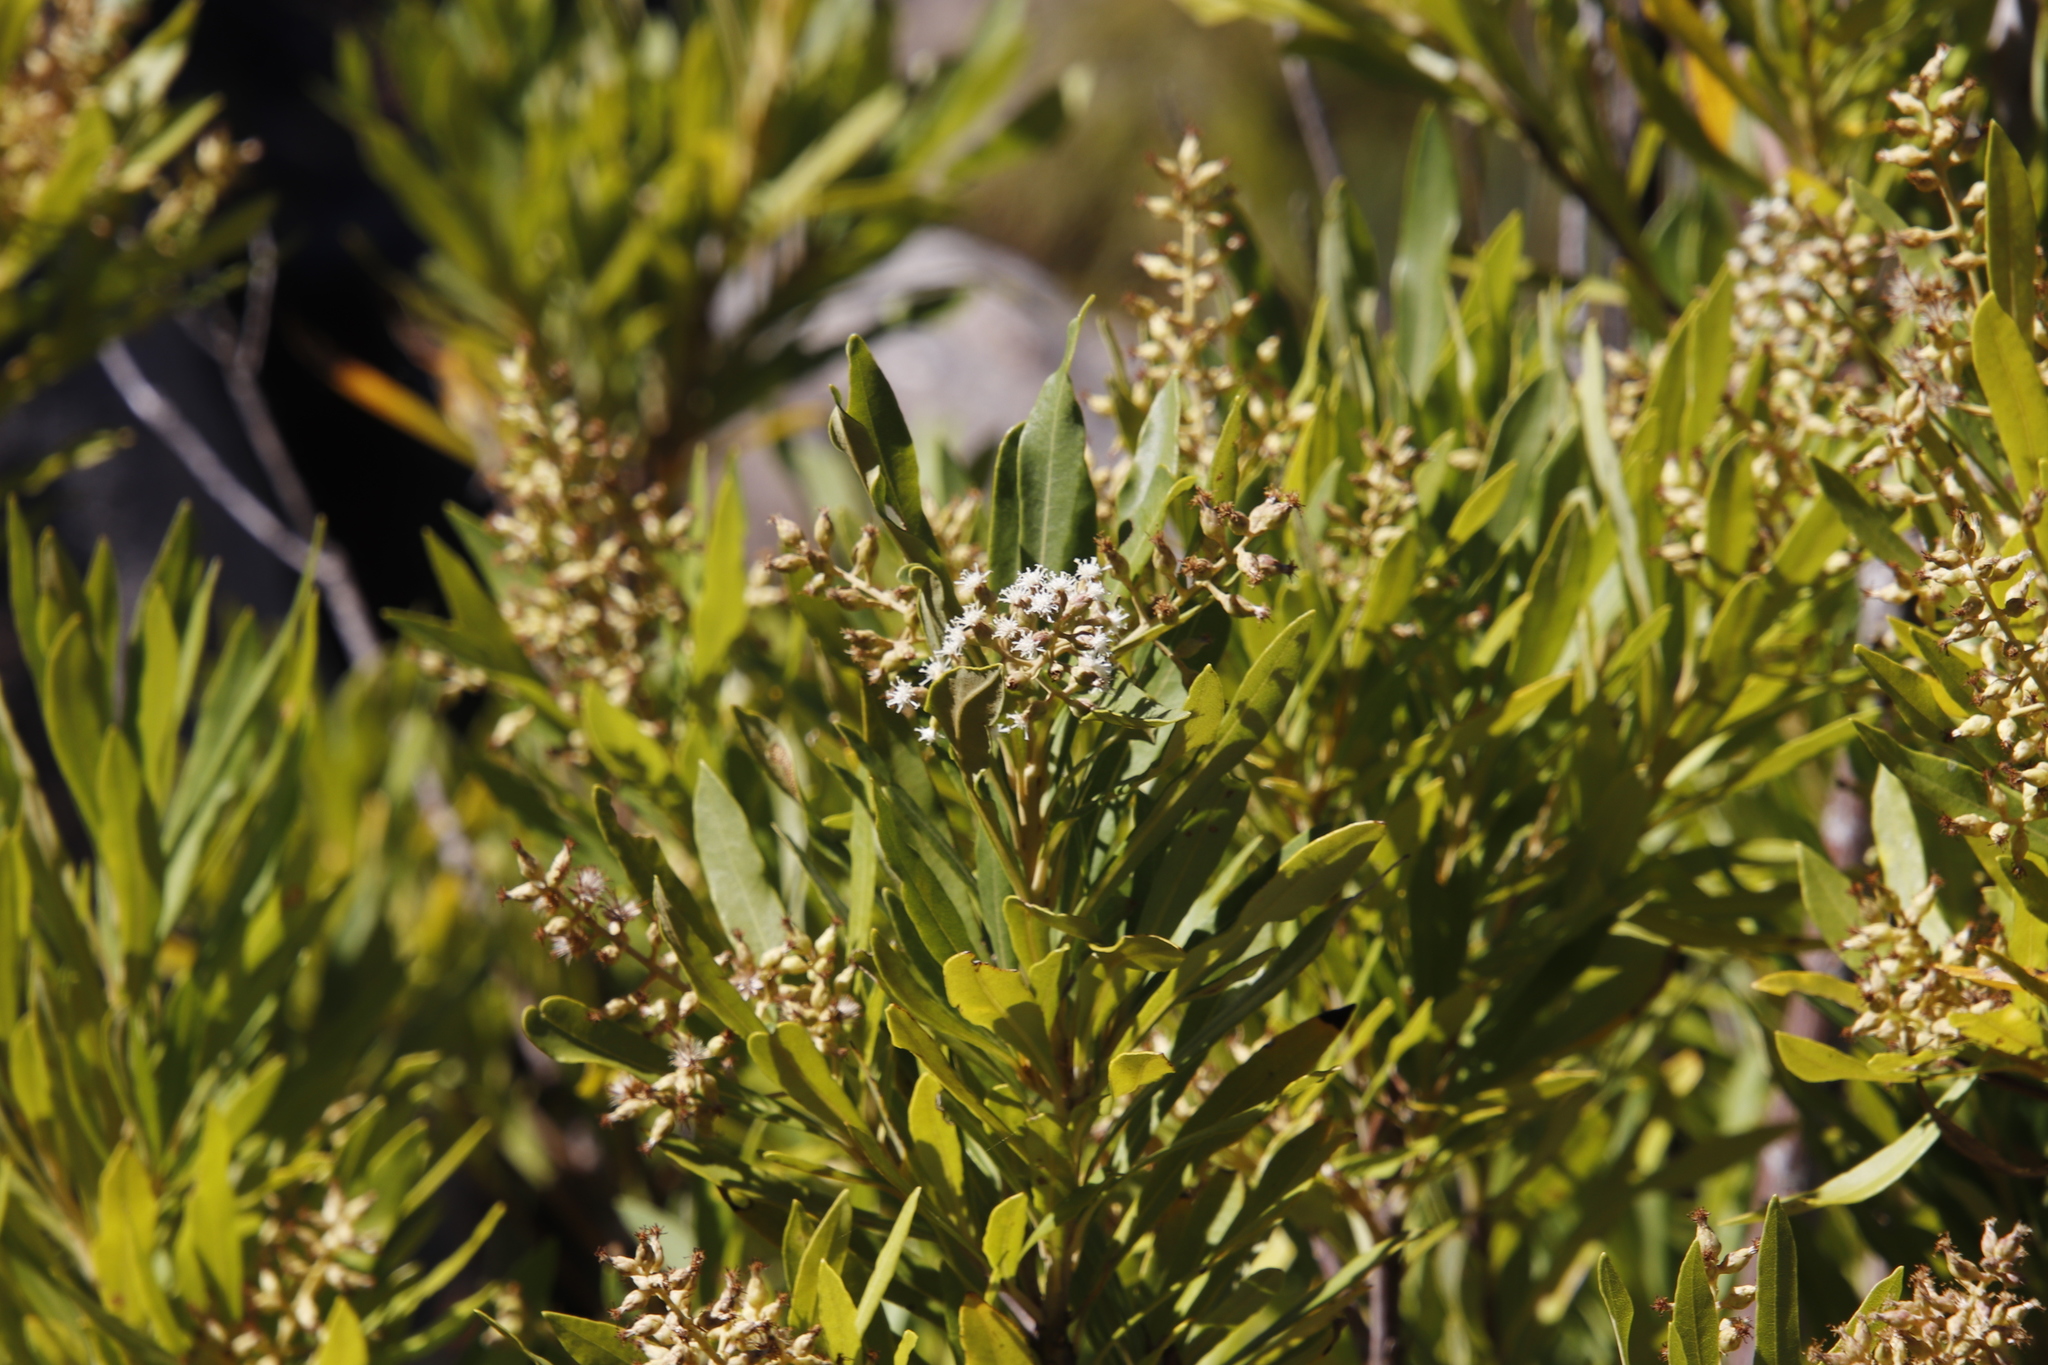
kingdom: Plantae
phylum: Tracheophyta
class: Magnoliopsida
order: Asterales
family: Asteraceae
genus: Brachylaena
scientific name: Brachylaena neriifolia
